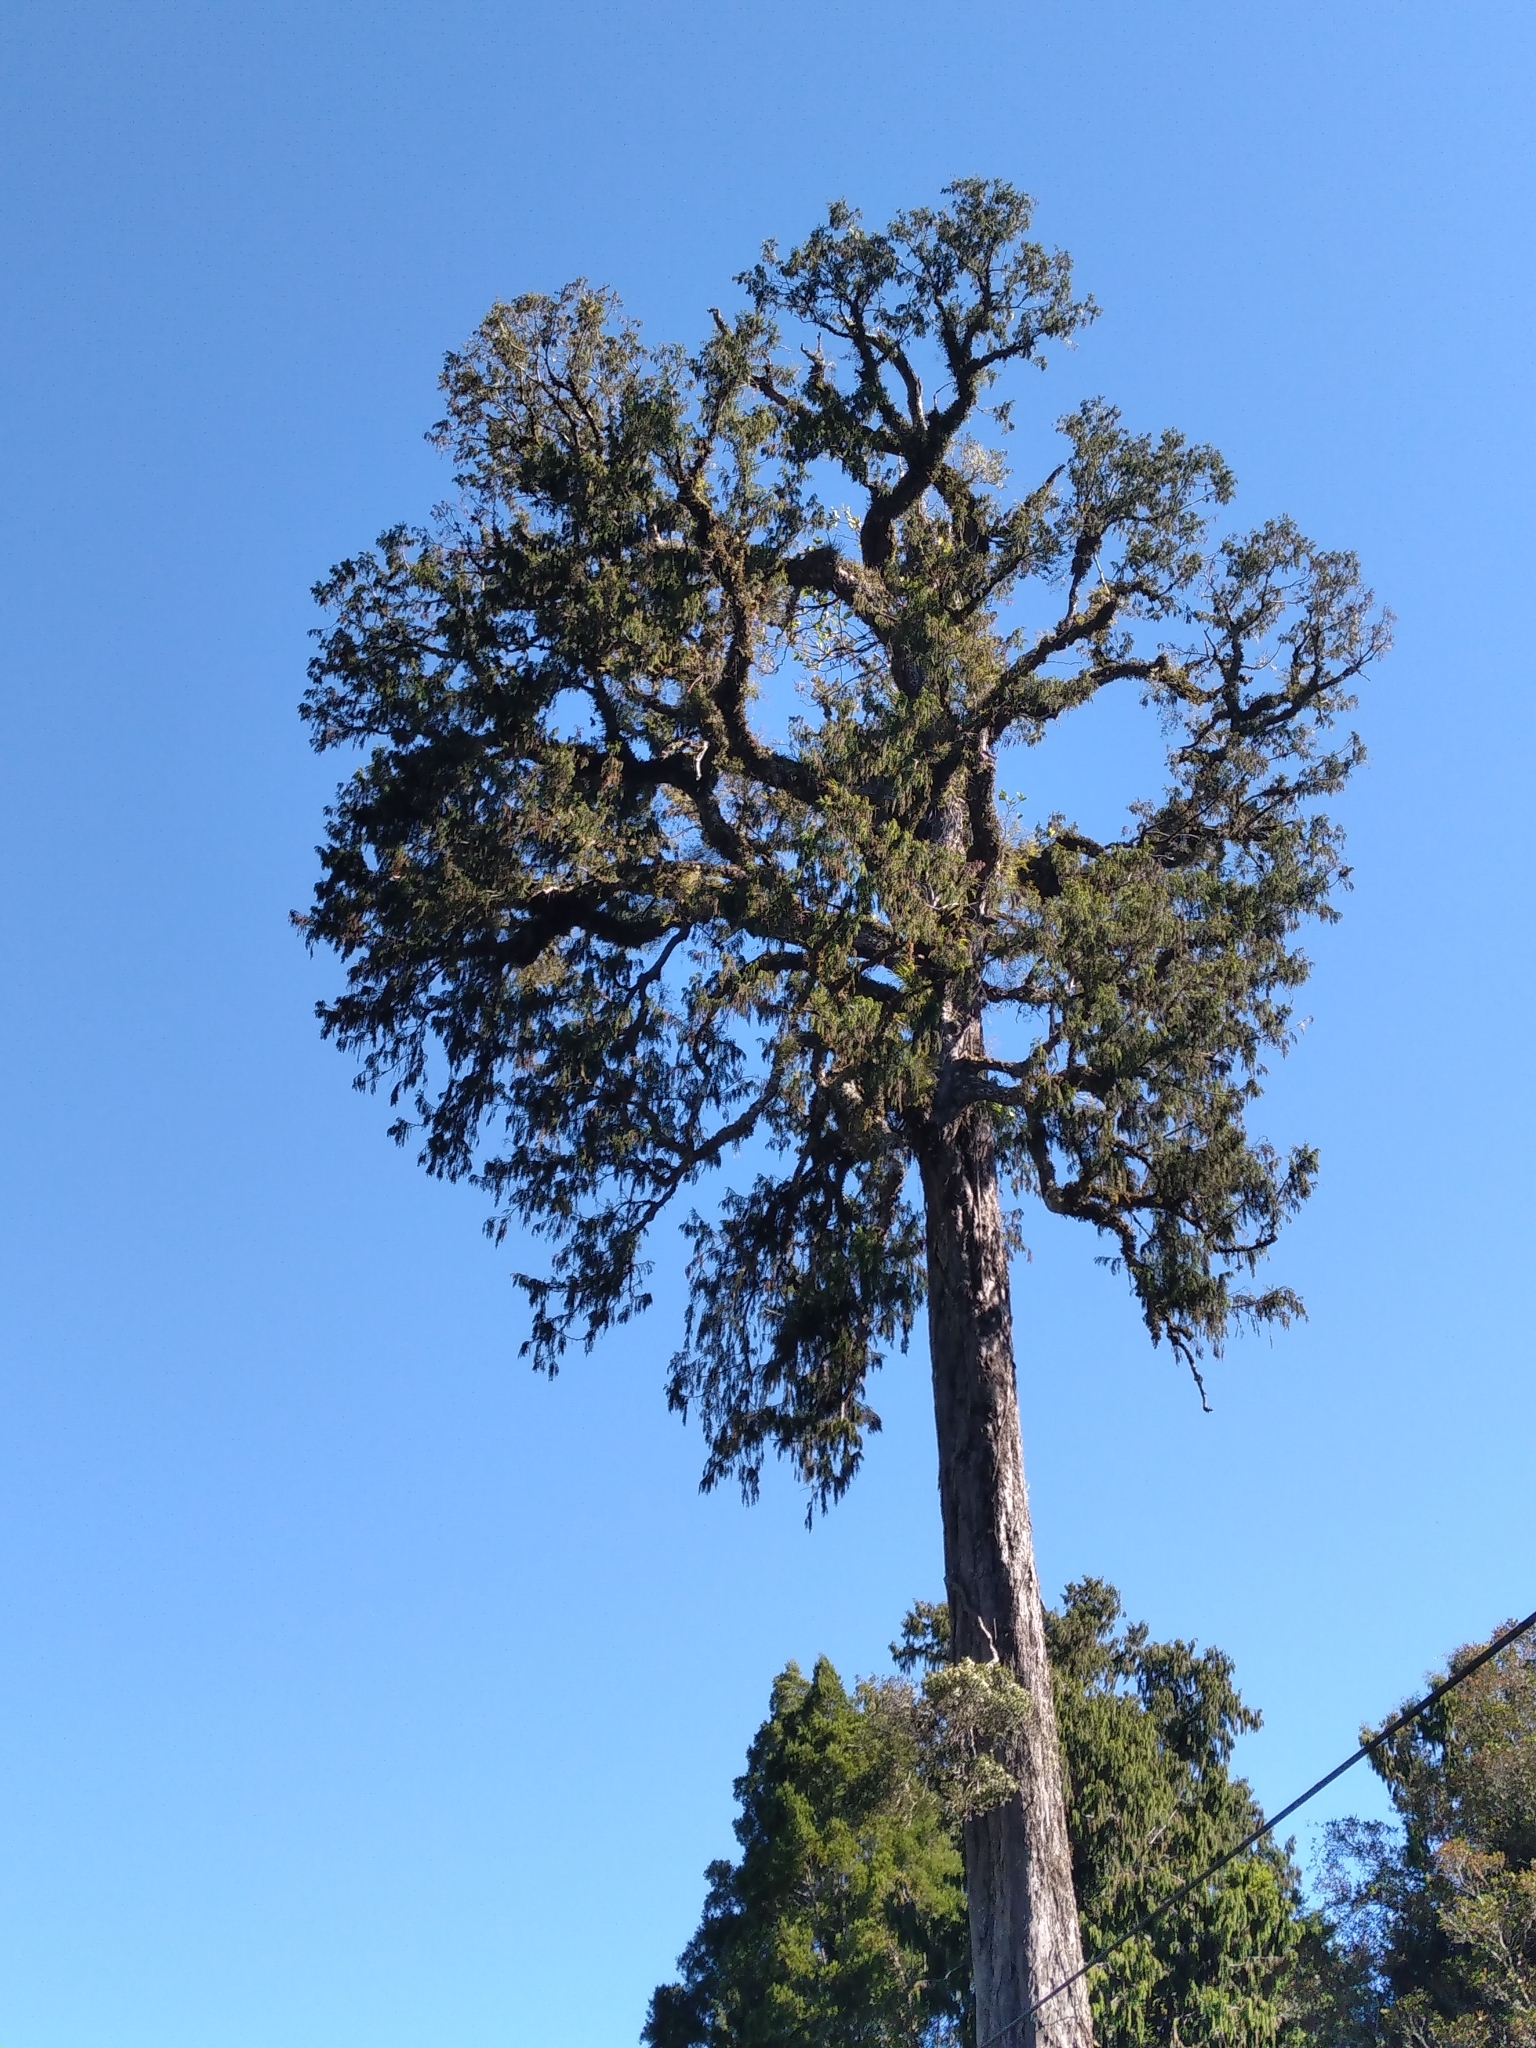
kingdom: Plantae
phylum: Tracheophyta
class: Pinopsida
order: Pinales
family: Podocarpaceae
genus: Dacrydium
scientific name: Dacrydium cupressinum
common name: Red pine
